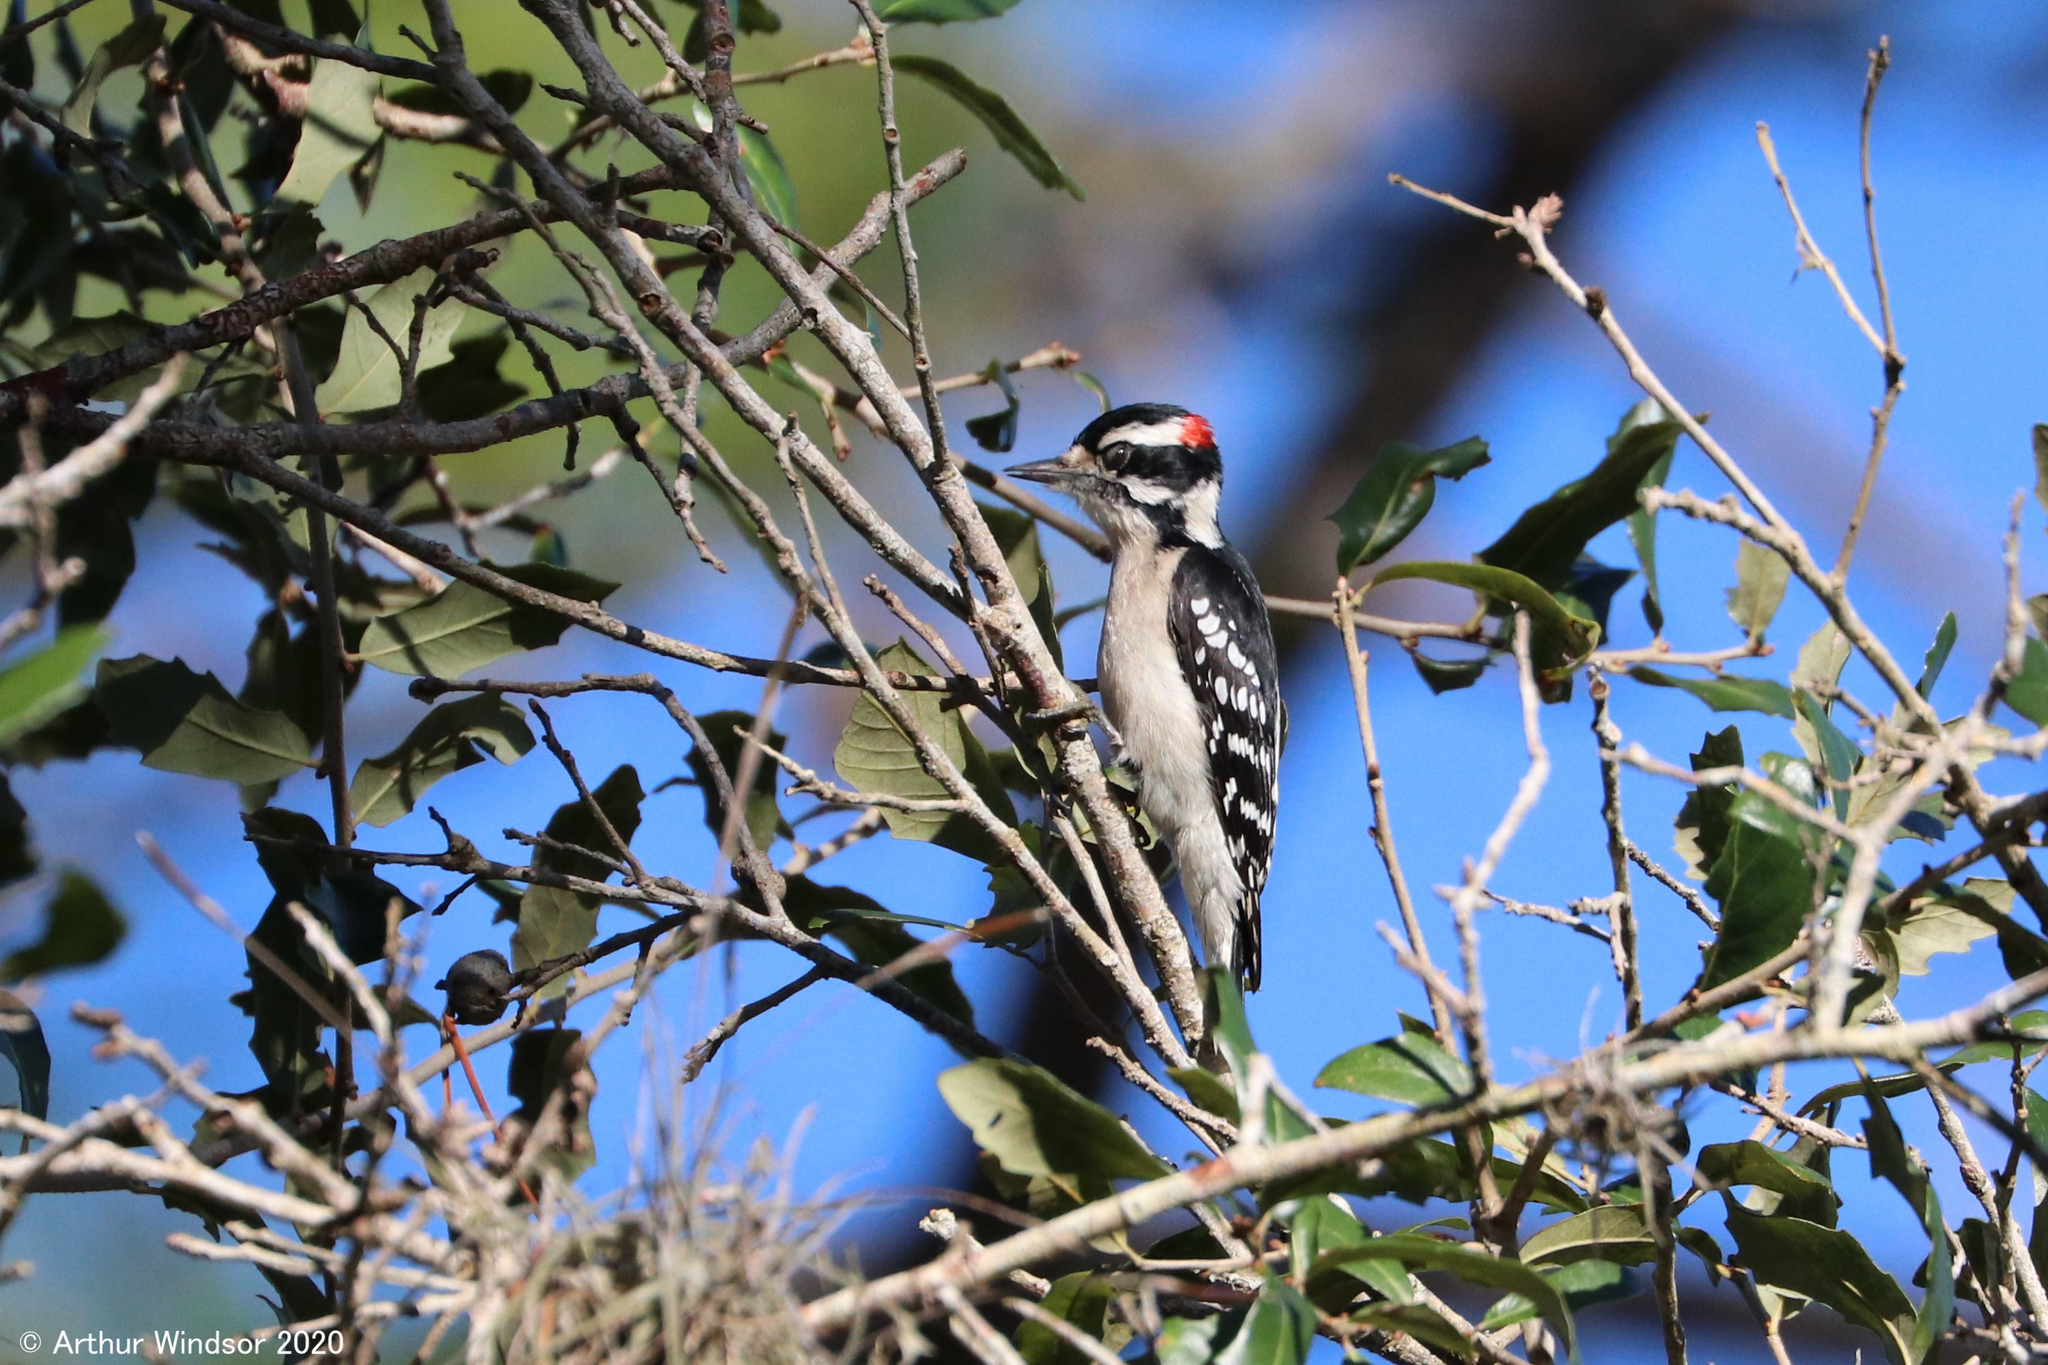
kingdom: Animalia
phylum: Chordata
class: Aves
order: Piciformes
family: Picidae
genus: Dryobates
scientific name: Dryobates pubescens
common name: Downy woodpecker
